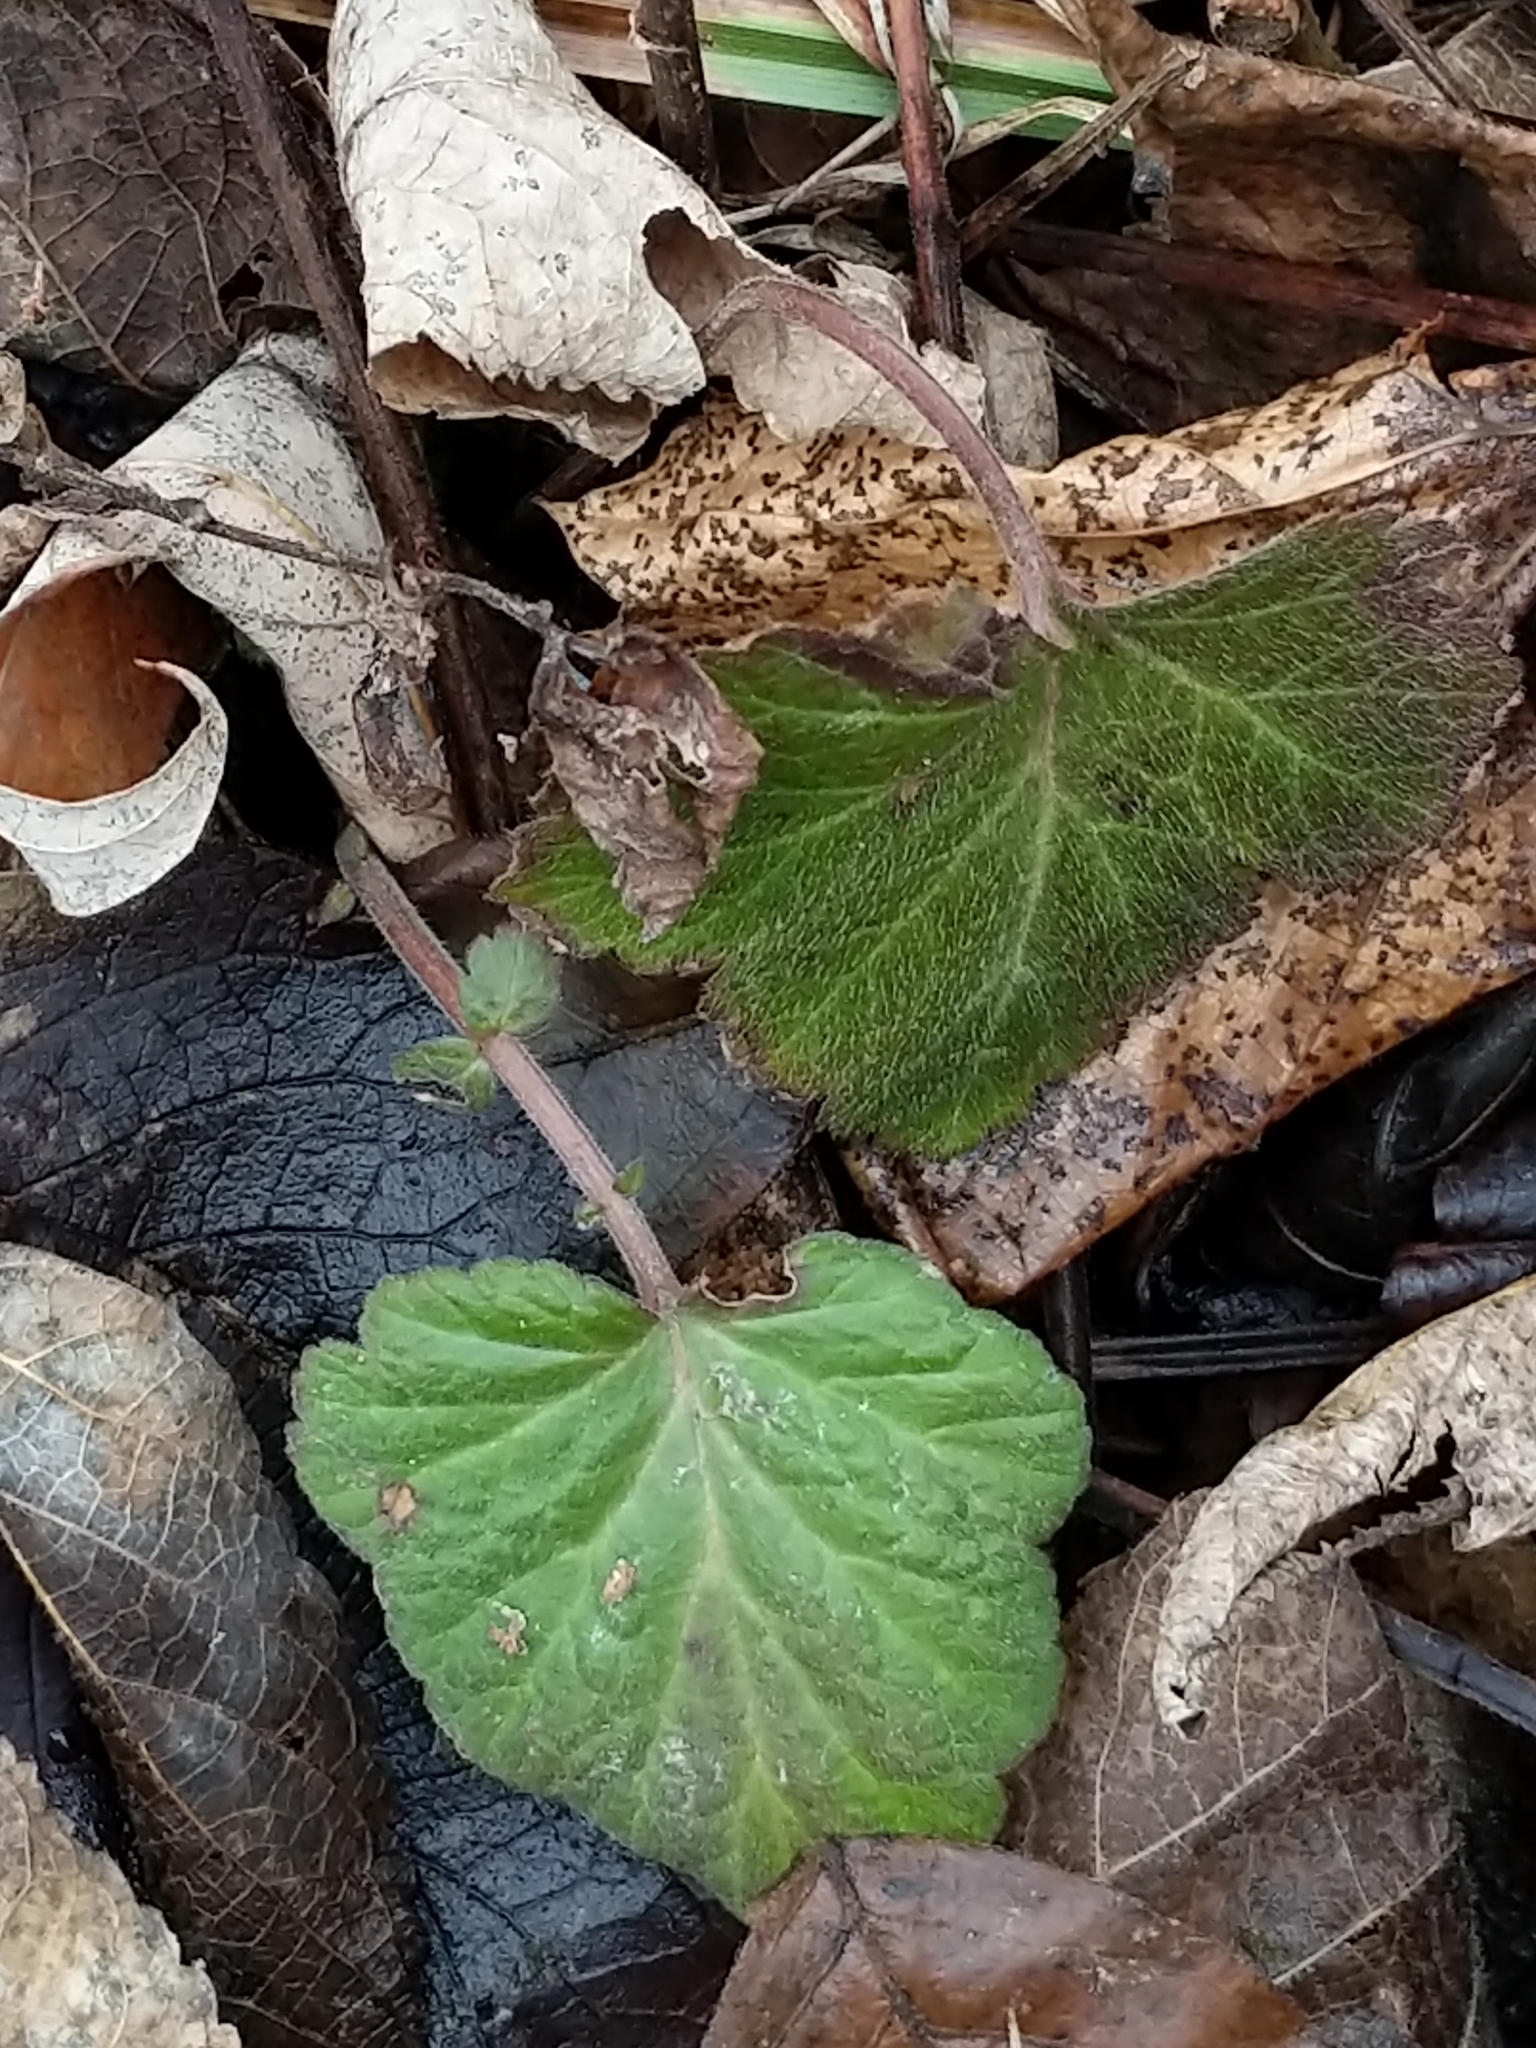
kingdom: Plantae
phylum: Tracheophyta
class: Magnoliopsida
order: Rosales
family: Rosaceae
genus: Geum
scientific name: Geum canadense
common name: White avens
